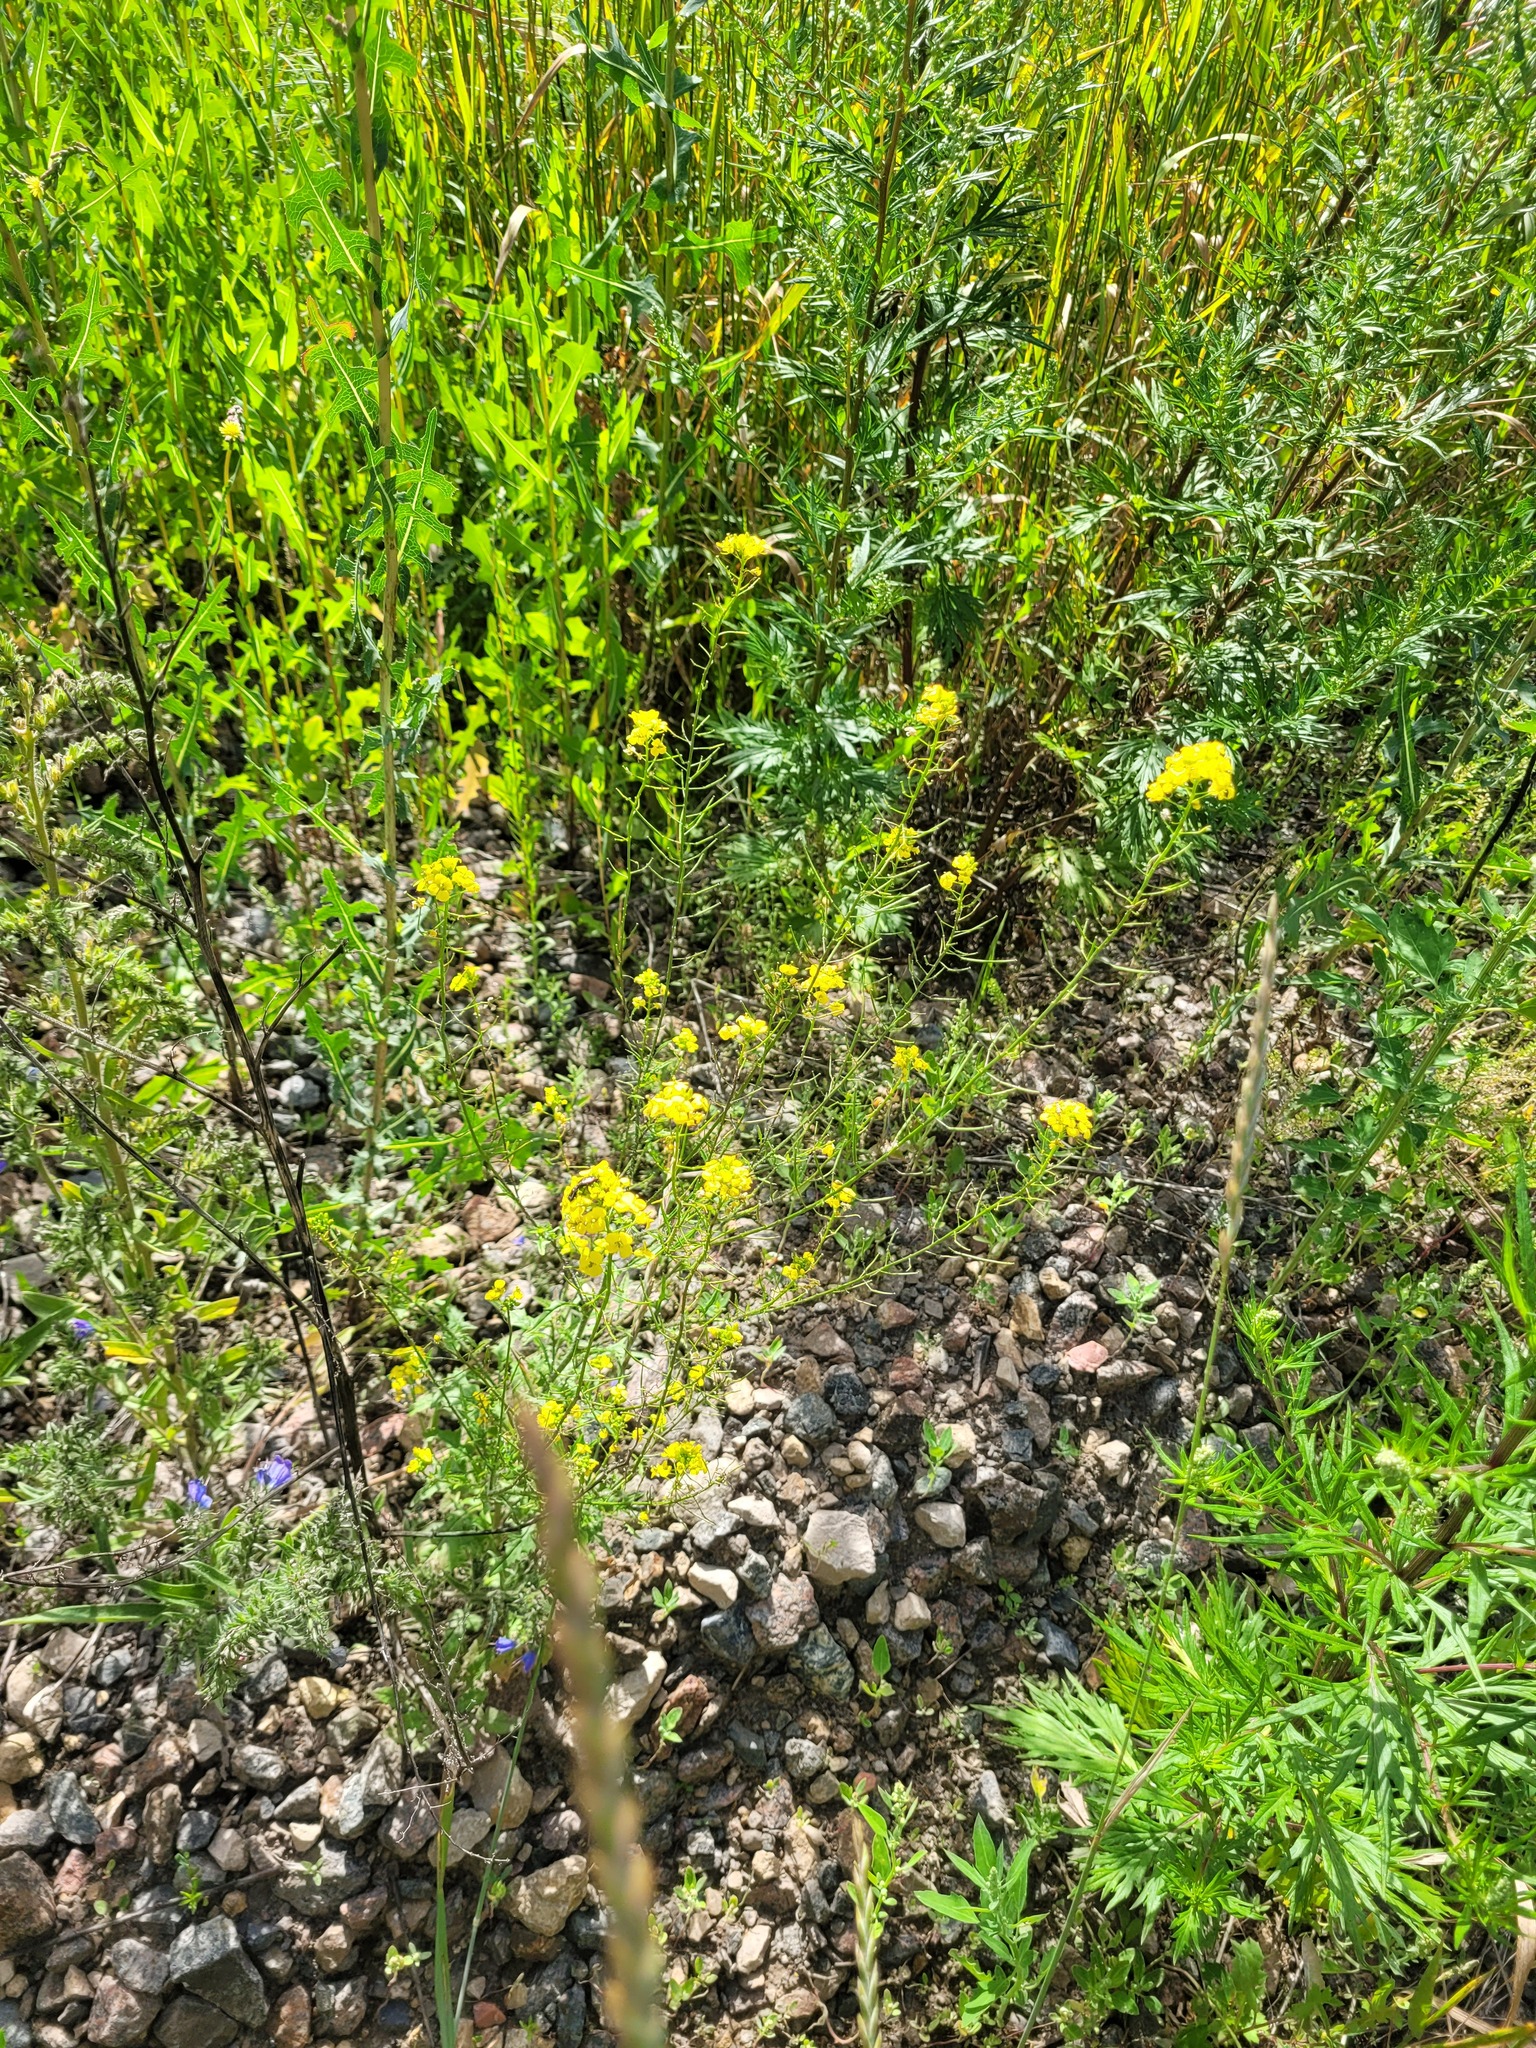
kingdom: Plantae
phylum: Tracheophyta
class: Magnoliopsida
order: Brassicales
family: Brassicaceae
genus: Sisymbrium
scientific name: Sisymbrium loeselii
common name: False london-rocket
